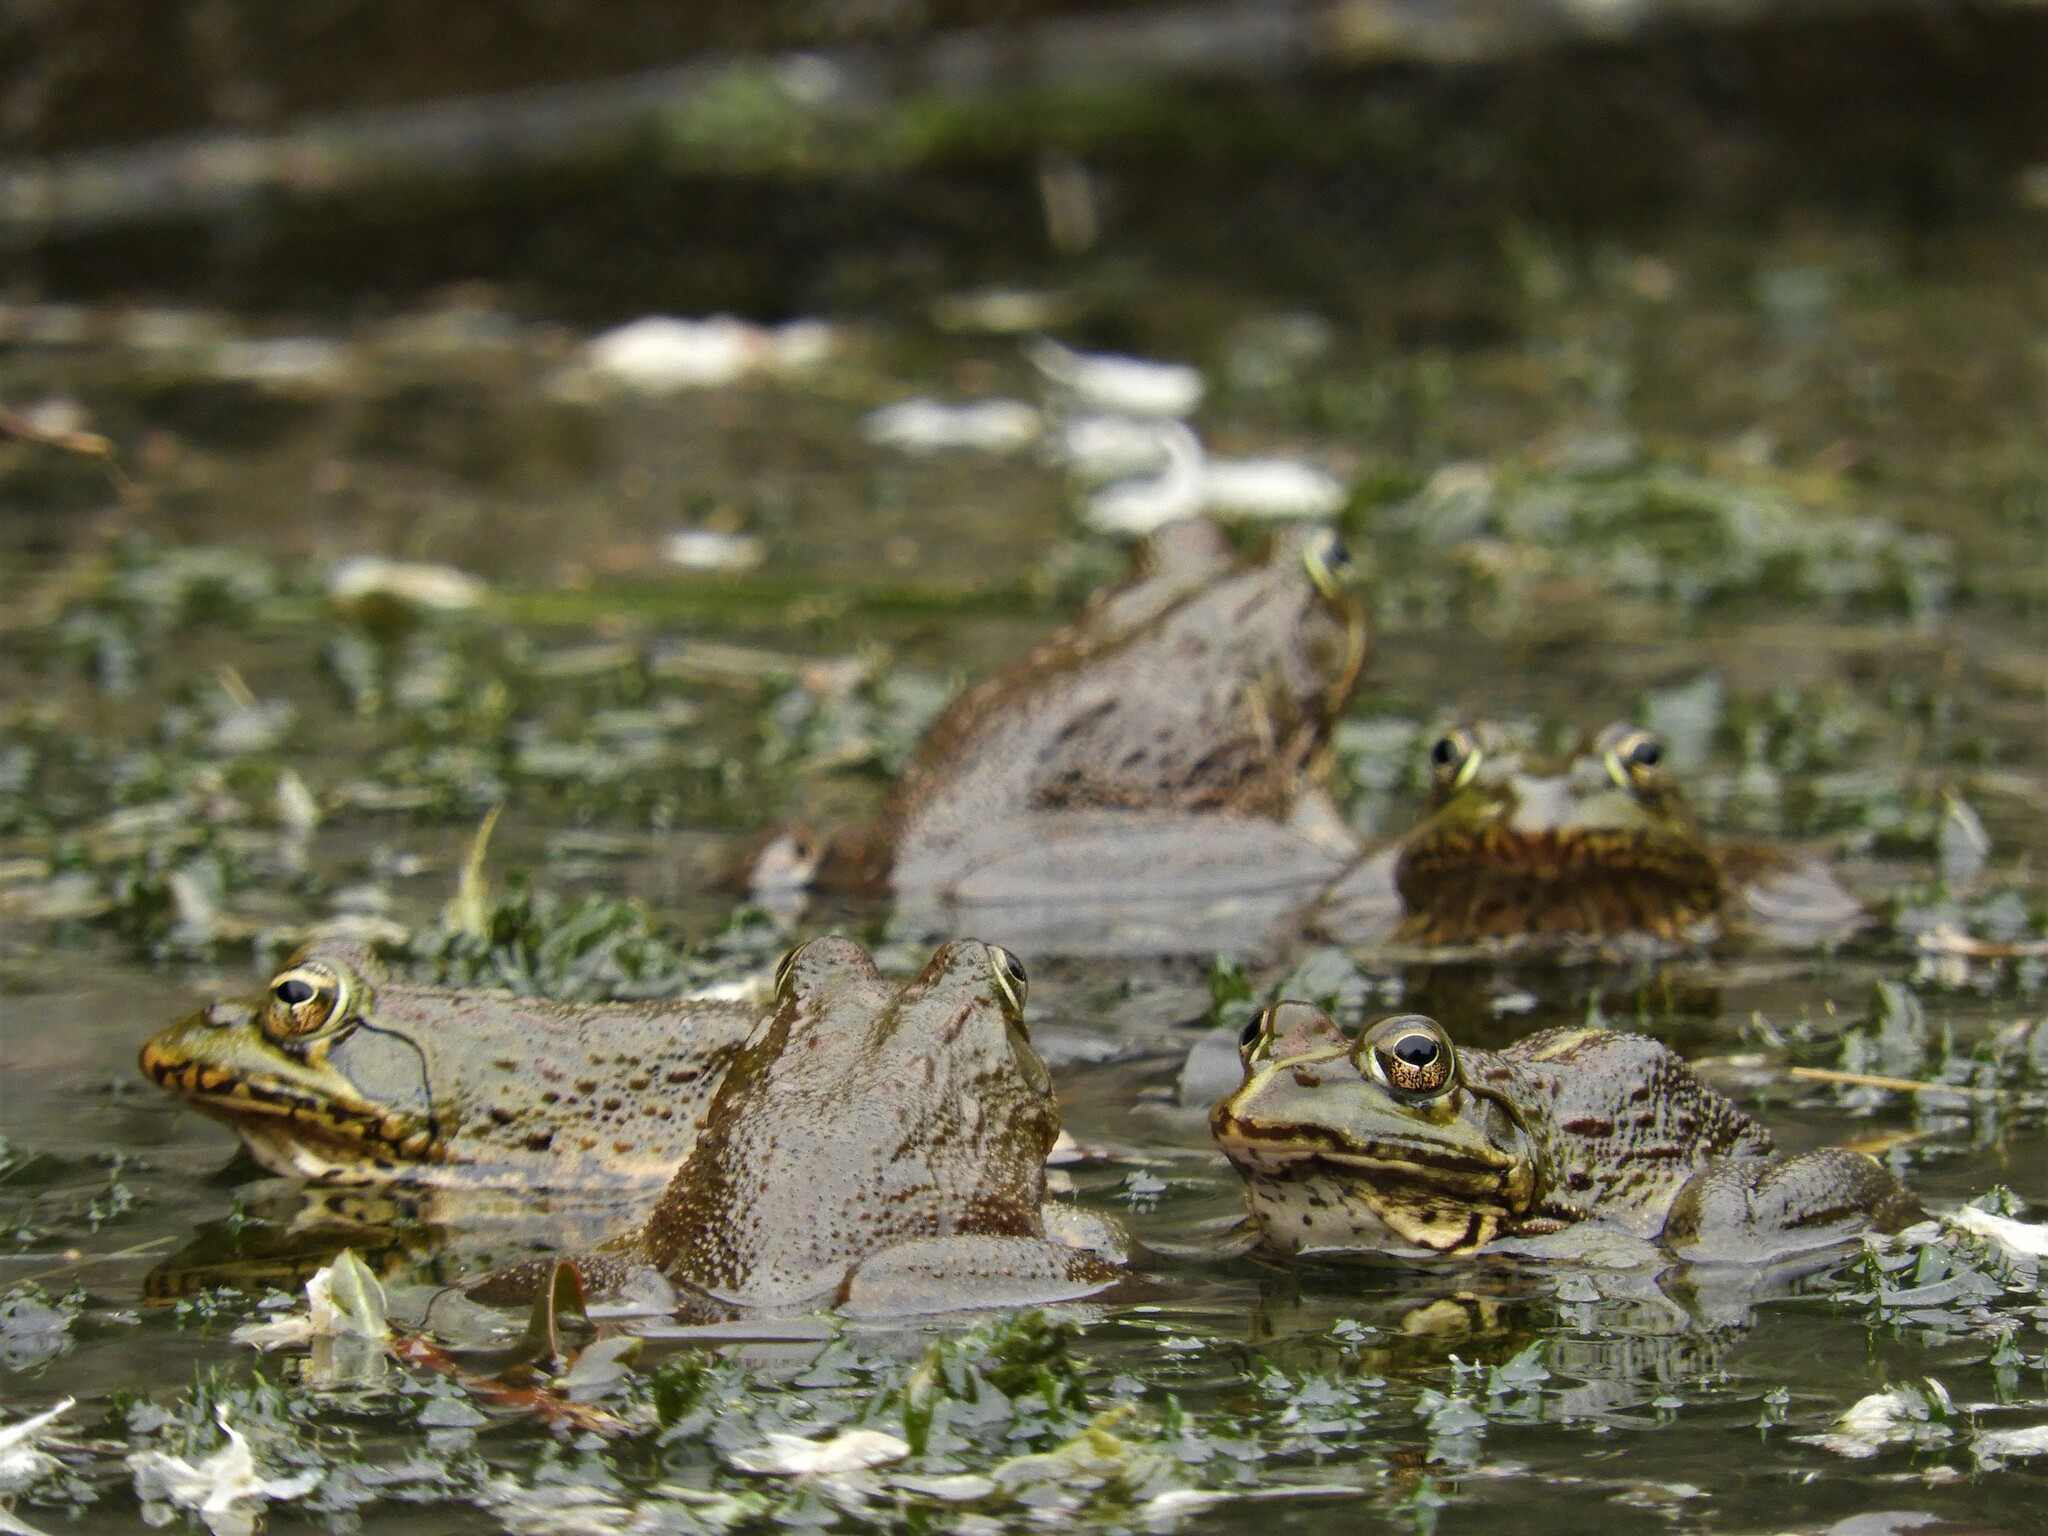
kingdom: Animalia
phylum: Chordata
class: Amphibia
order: Anura
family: Pyxicephalidae
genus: Amietia
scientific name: Amietia poyntoni
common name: Poynton's river frog
